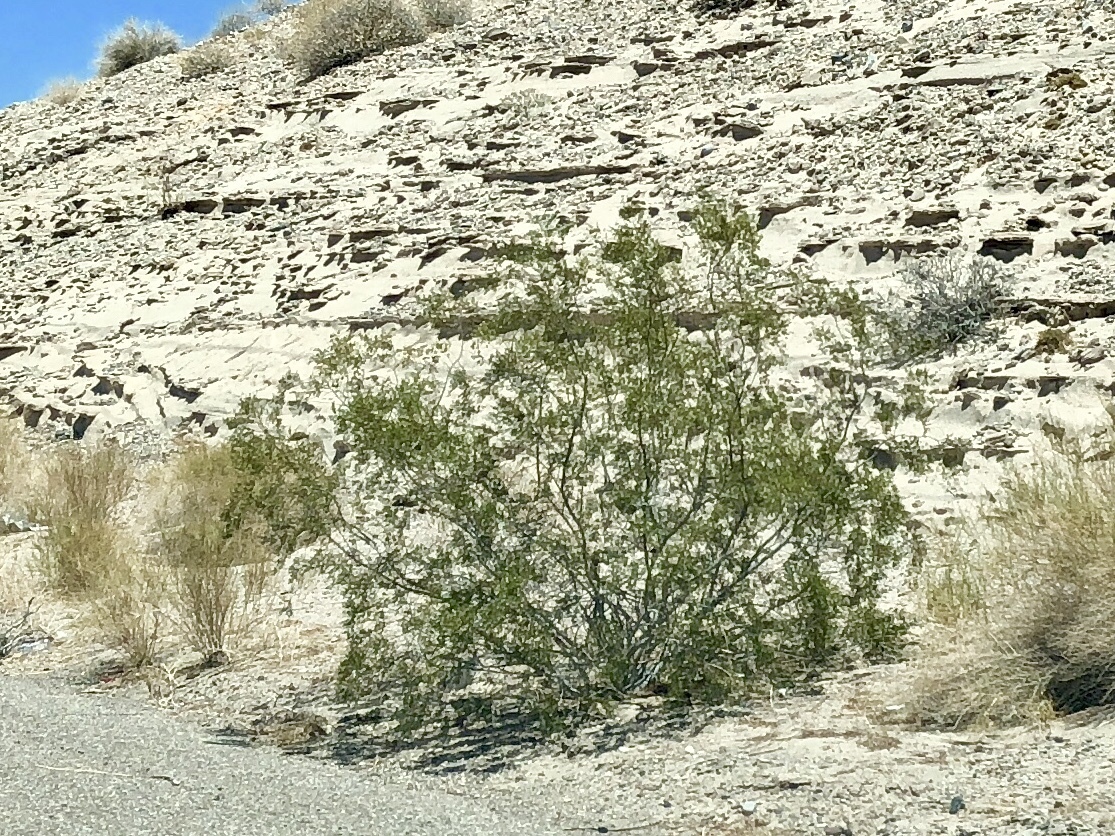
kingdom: Plantae
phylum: Tracheophyta
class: Magnoliopsida
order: Zygophyllales
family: Zygophyllaceae
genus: Larrea
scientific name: Larrea tridentata
